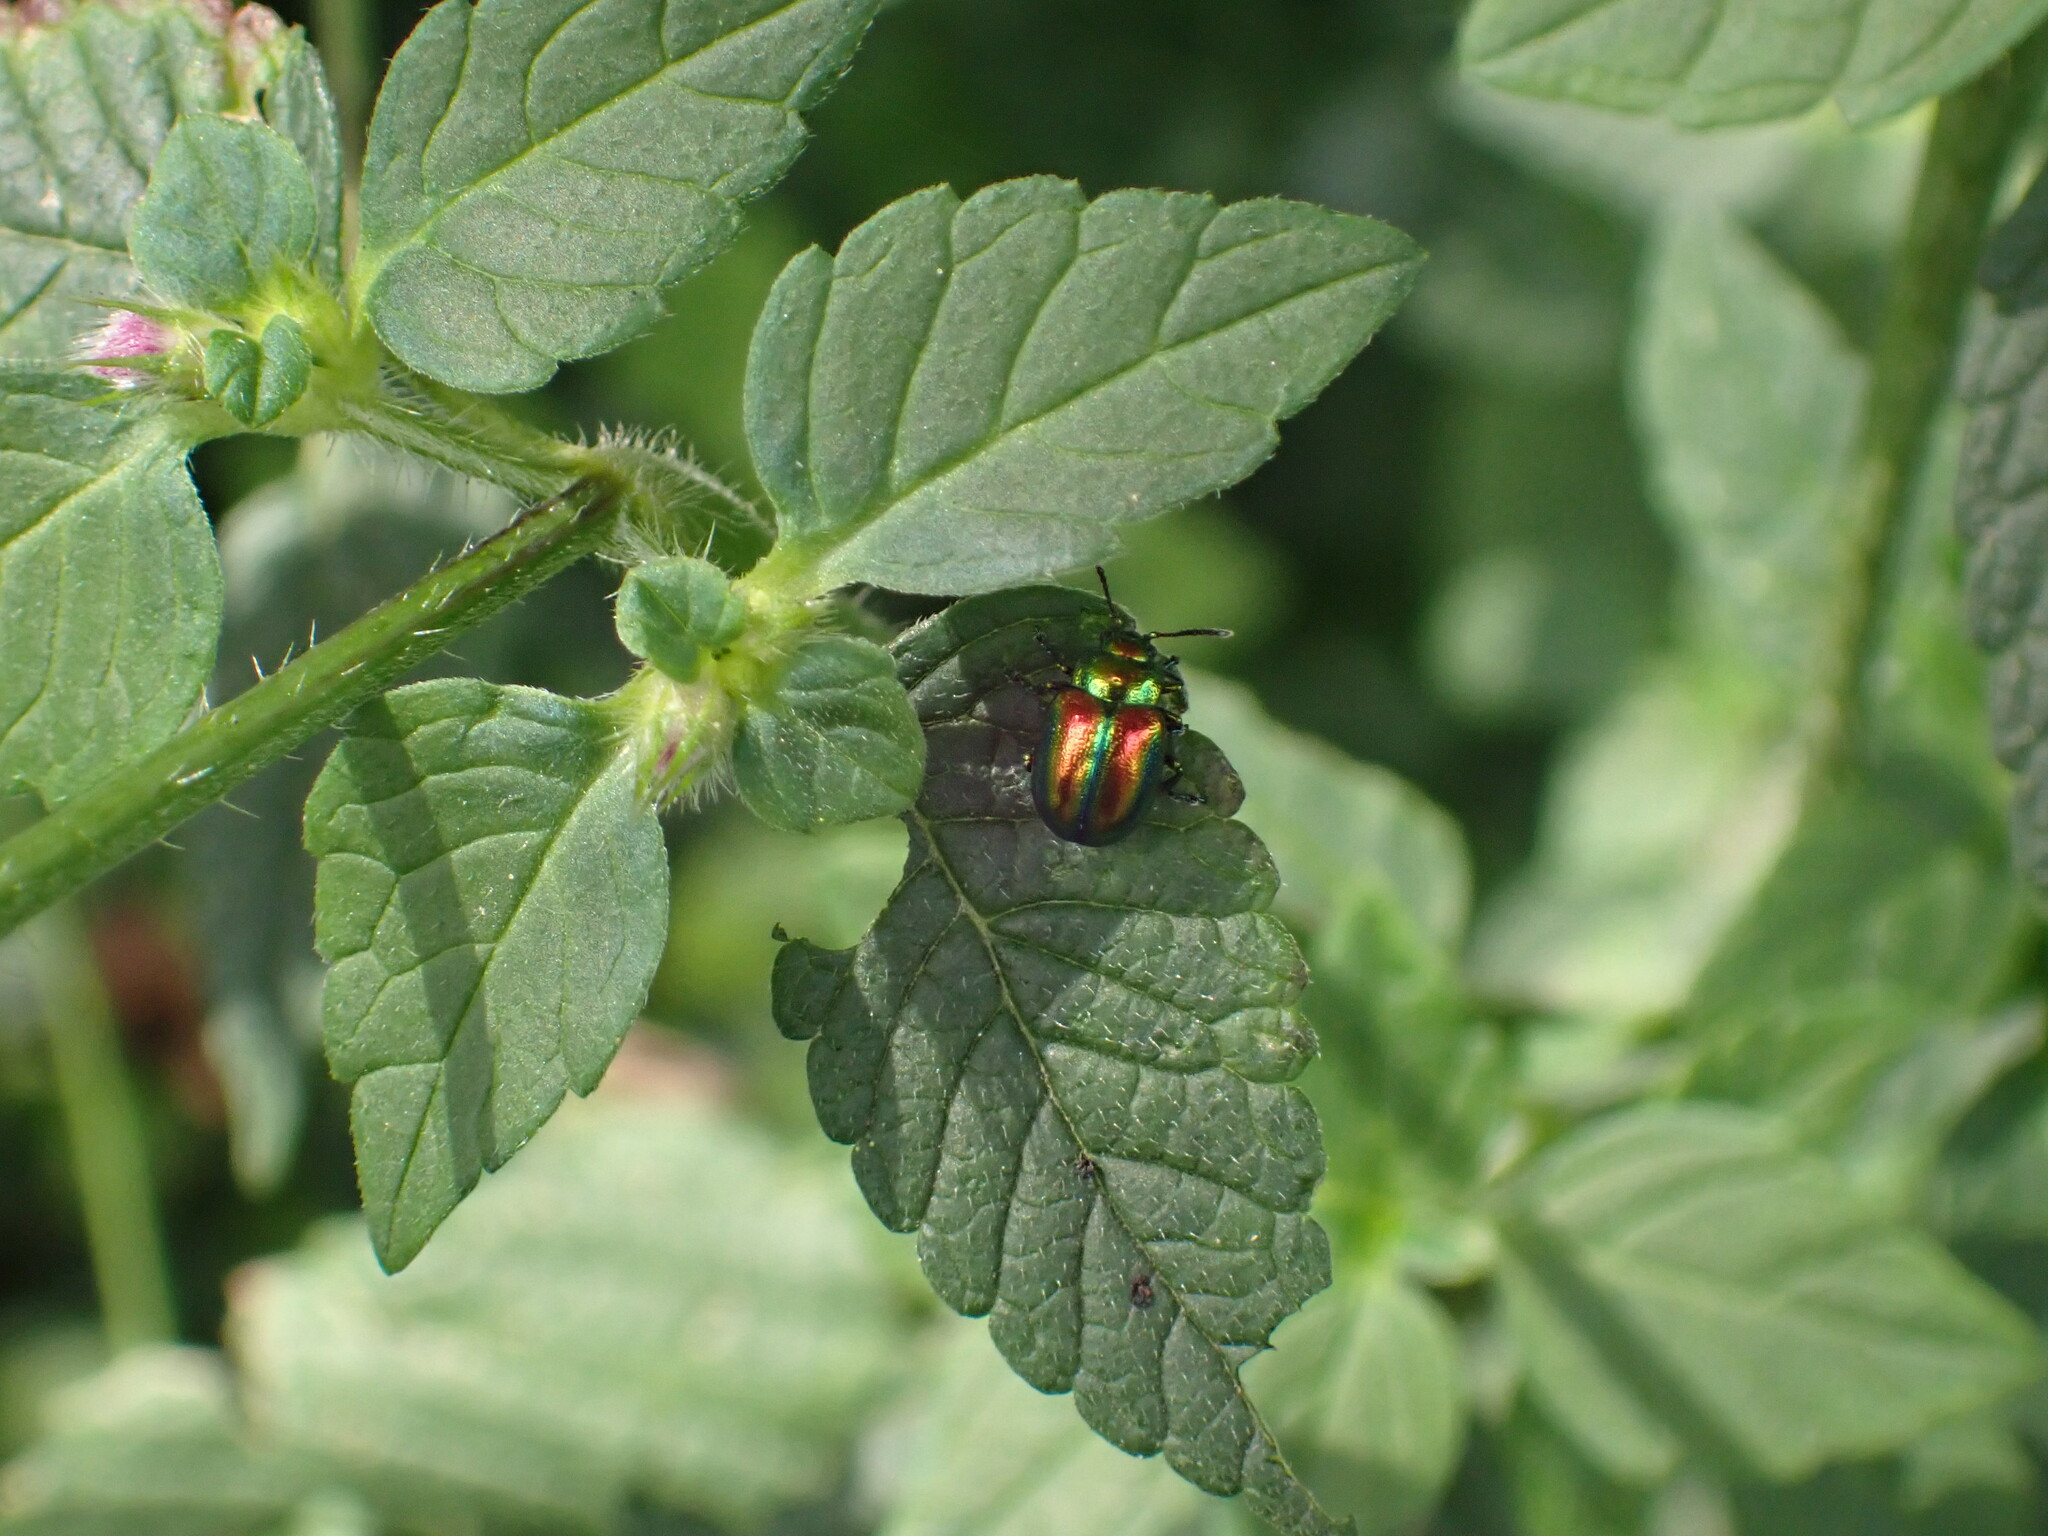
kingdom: Animalia
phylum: Arthropoda
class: Insecta
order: Coleoptera
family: Chrysomelidae
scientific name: Chrysomelidae
